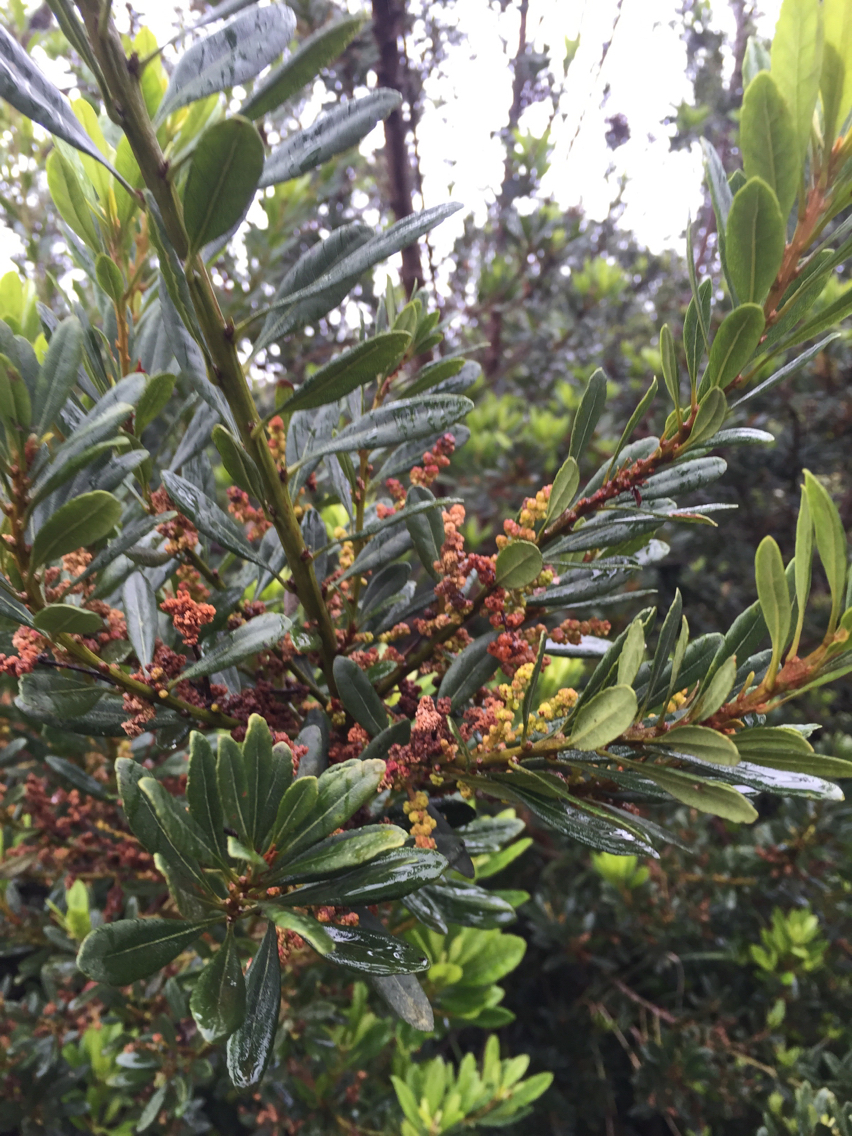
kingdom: Plantae
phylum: Tracheophyta
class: Magnoliopsida
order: Fagales
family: Myricaceae
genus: Morella
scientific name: Morella faya
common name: Firetree
